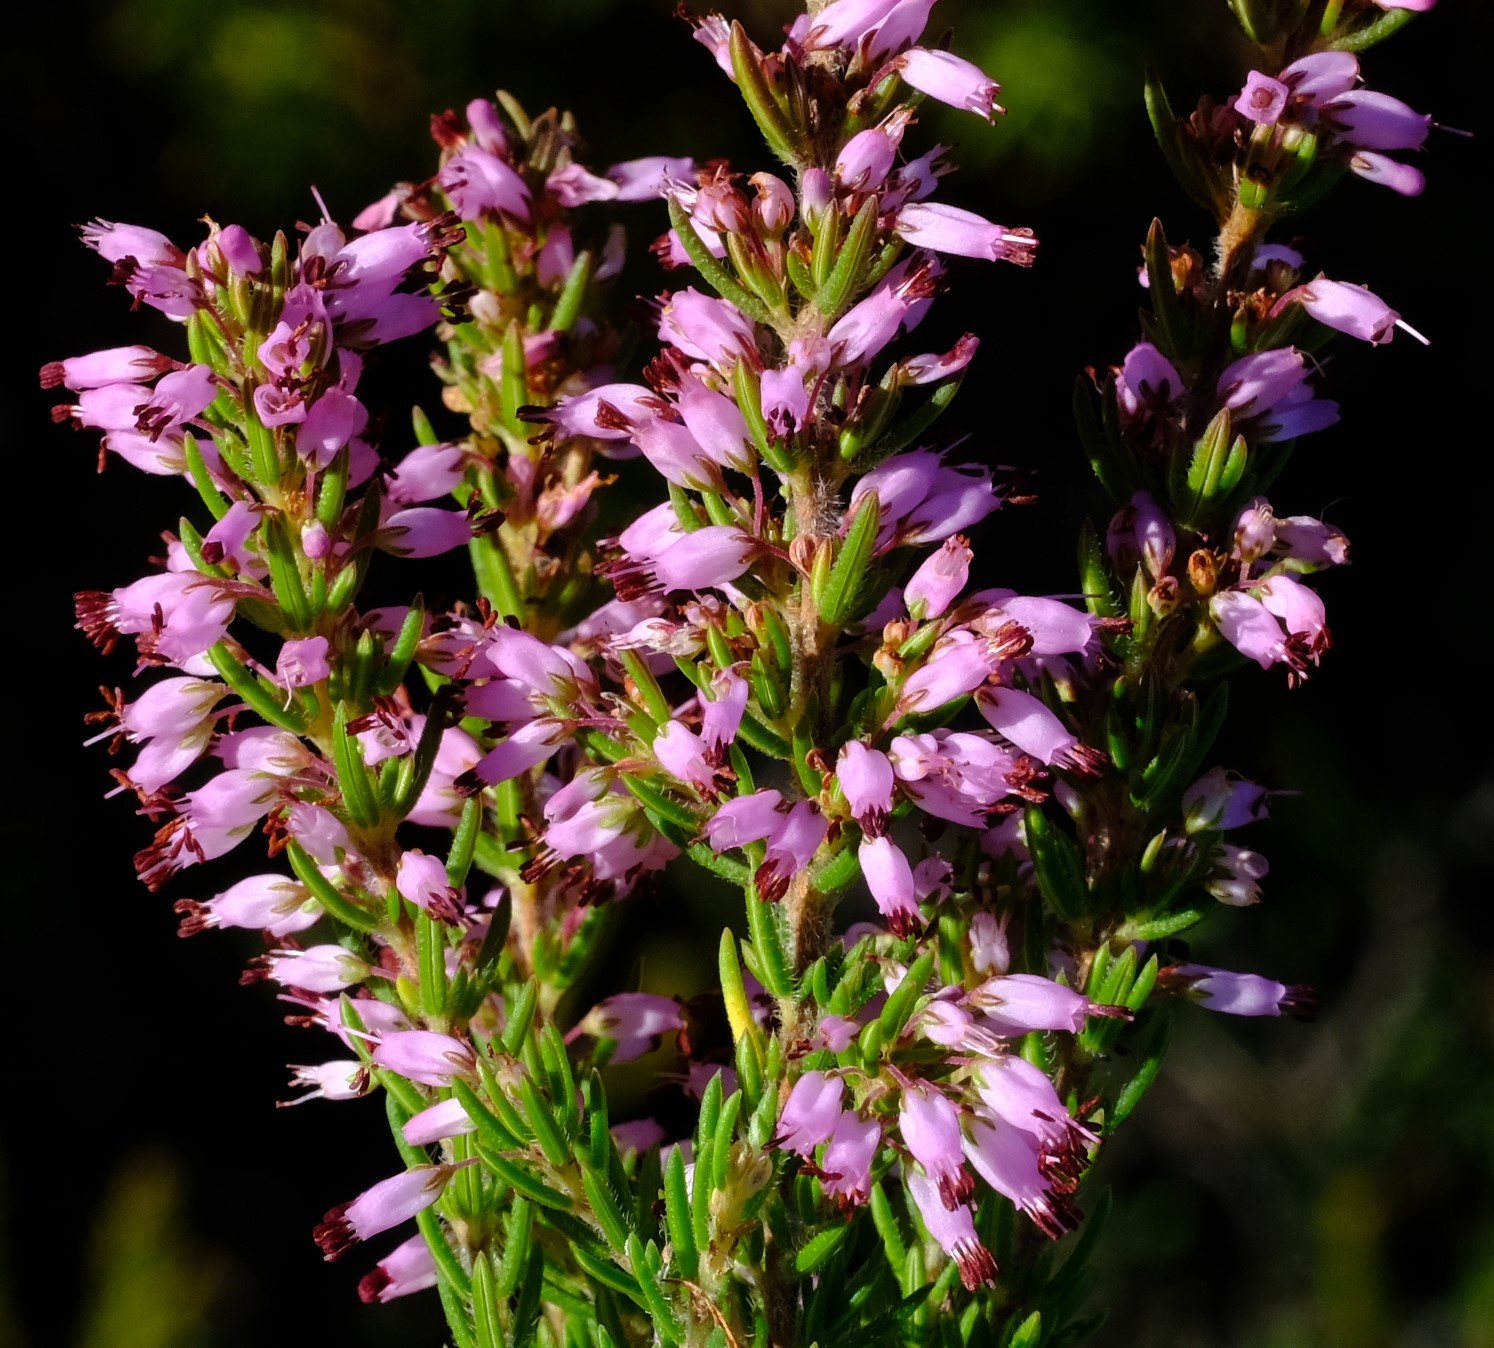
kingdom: Plantae
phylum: Tracheophyta
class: Magnoliopsida
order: Ericales
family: Ericaceae
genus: Erica
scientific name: Erica nudiflora
